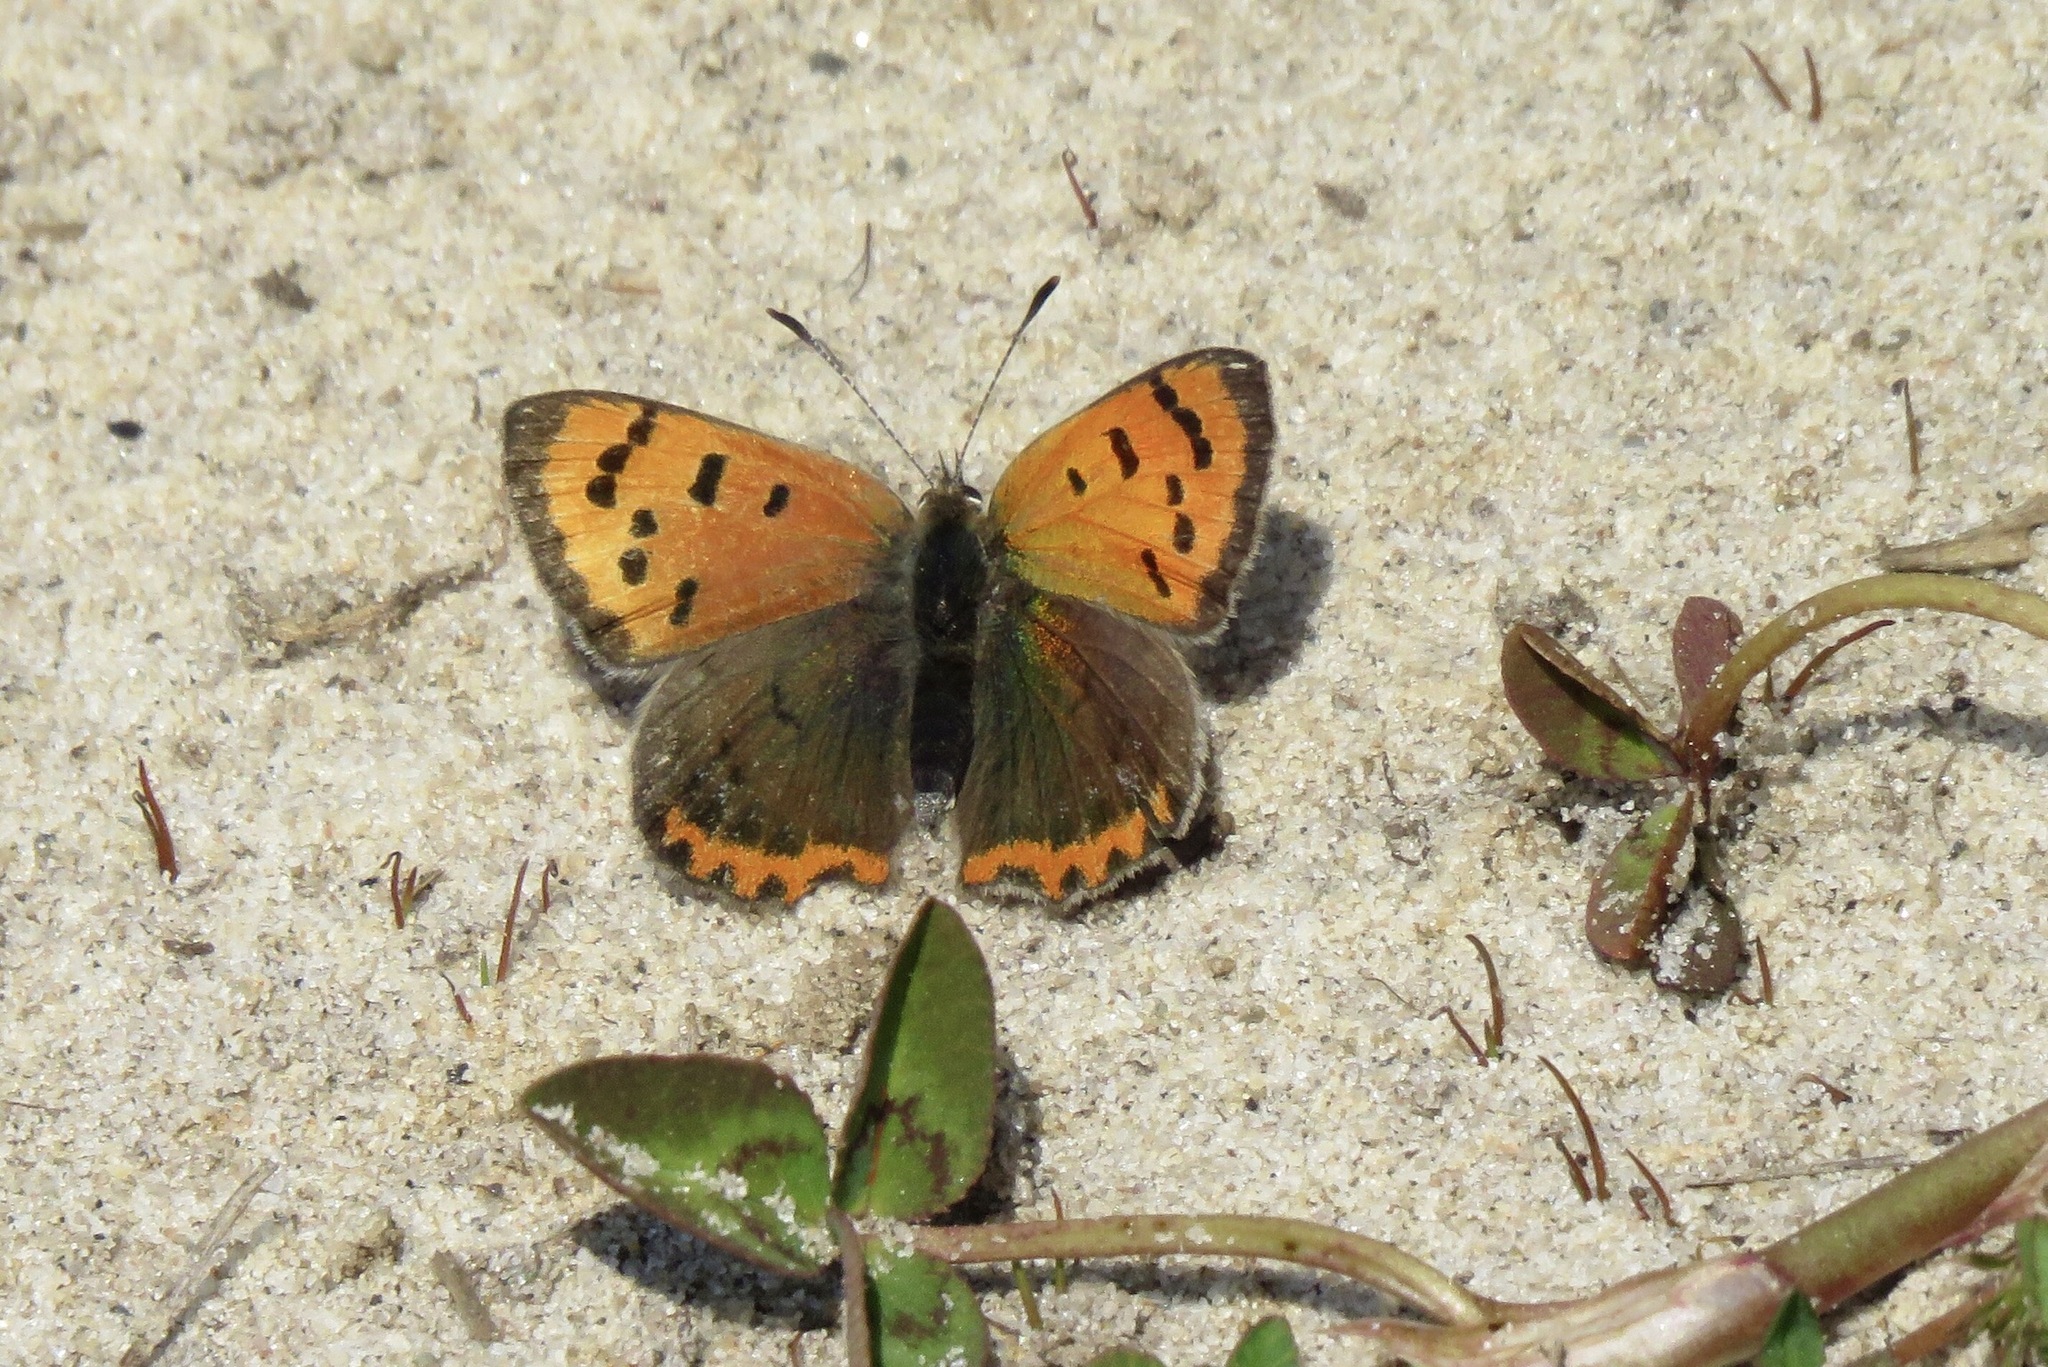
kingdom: Animalia
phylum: Arthropoda
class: Insecta
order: Lepidoptera
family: Lycaenidae
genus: Lycaena
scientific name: Lycaena phlaeas
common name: Small copper
